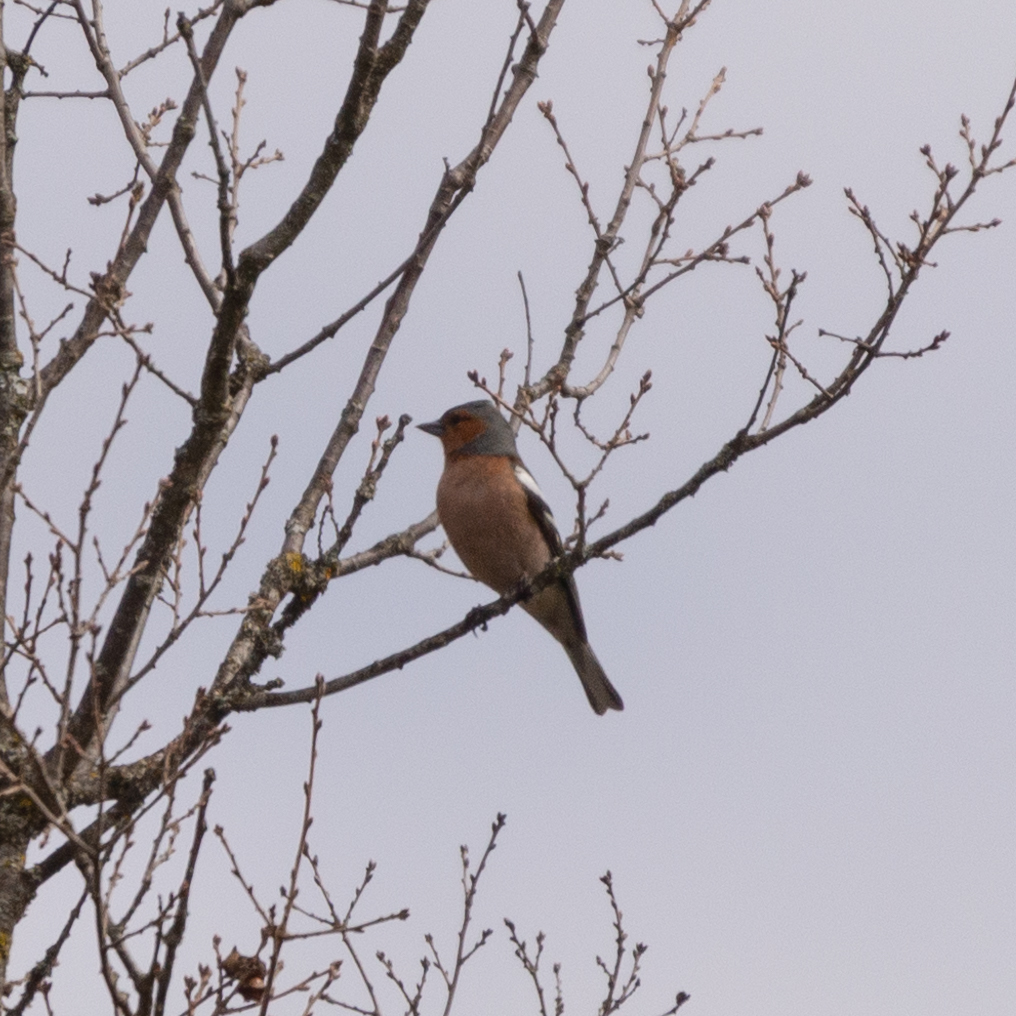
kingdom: Animalia
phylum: Chordata
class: Aves
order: Passeriformes
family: Fringillidae
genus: Fringilla
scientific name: Fringilla coelebs
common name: Common chaffinch
